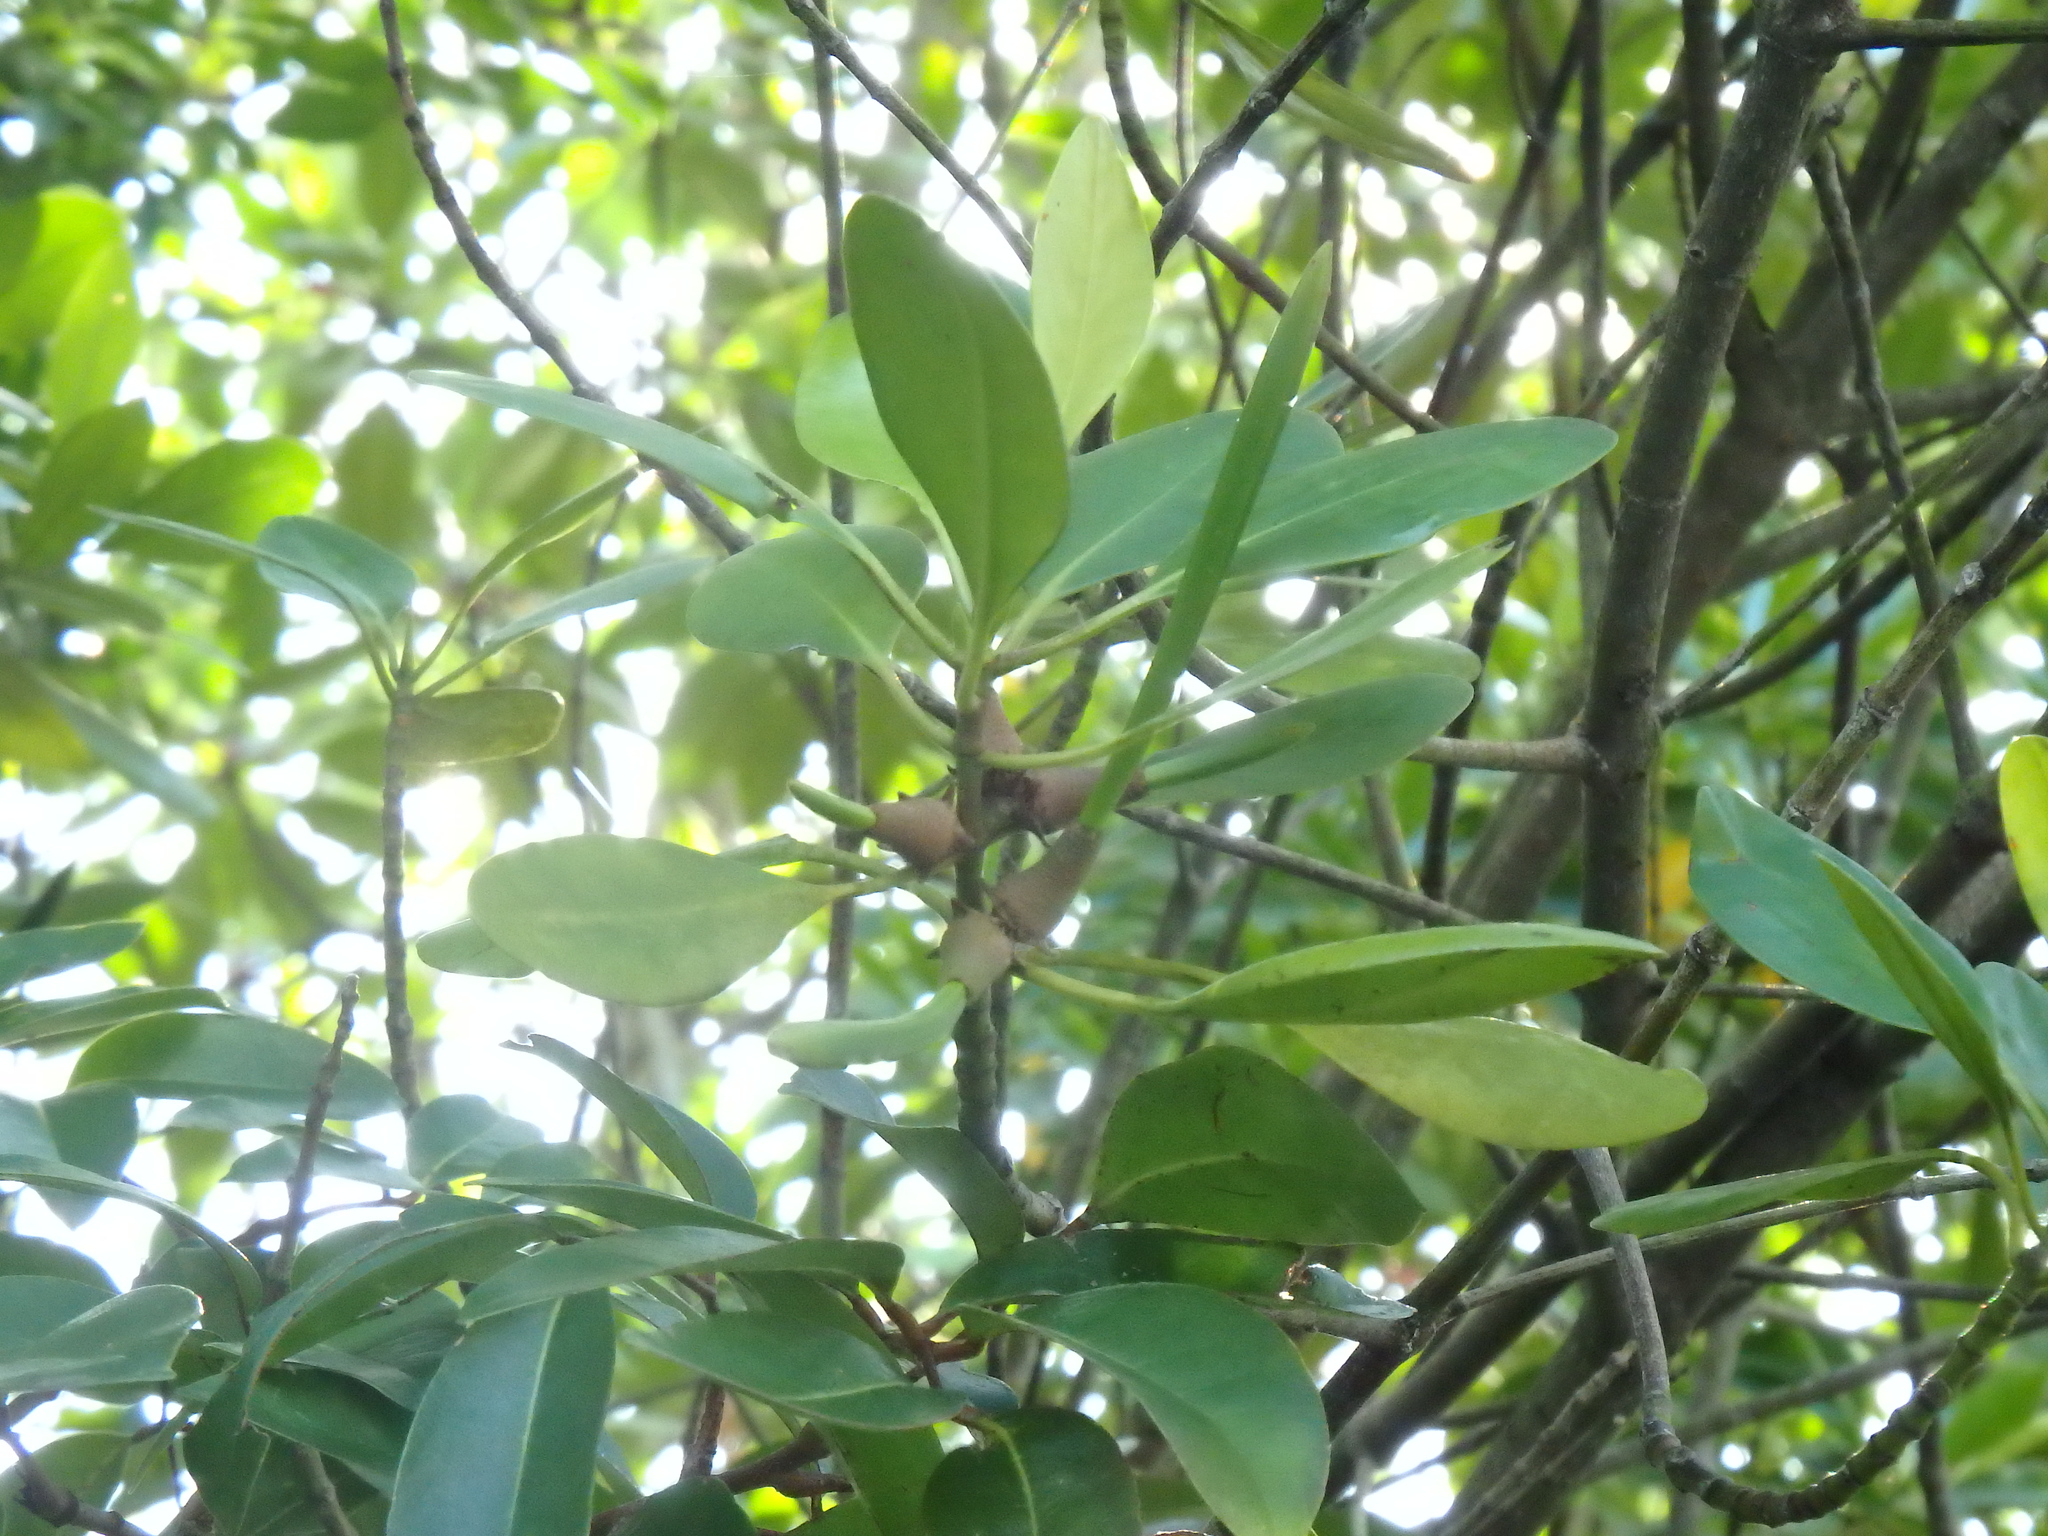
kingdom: Plantae
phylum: Tracheophyta
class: Magnoliopsida
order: Malpighiales
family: Rhizophoraceae
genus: Ceriops
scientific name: Ceriops zippeliana
